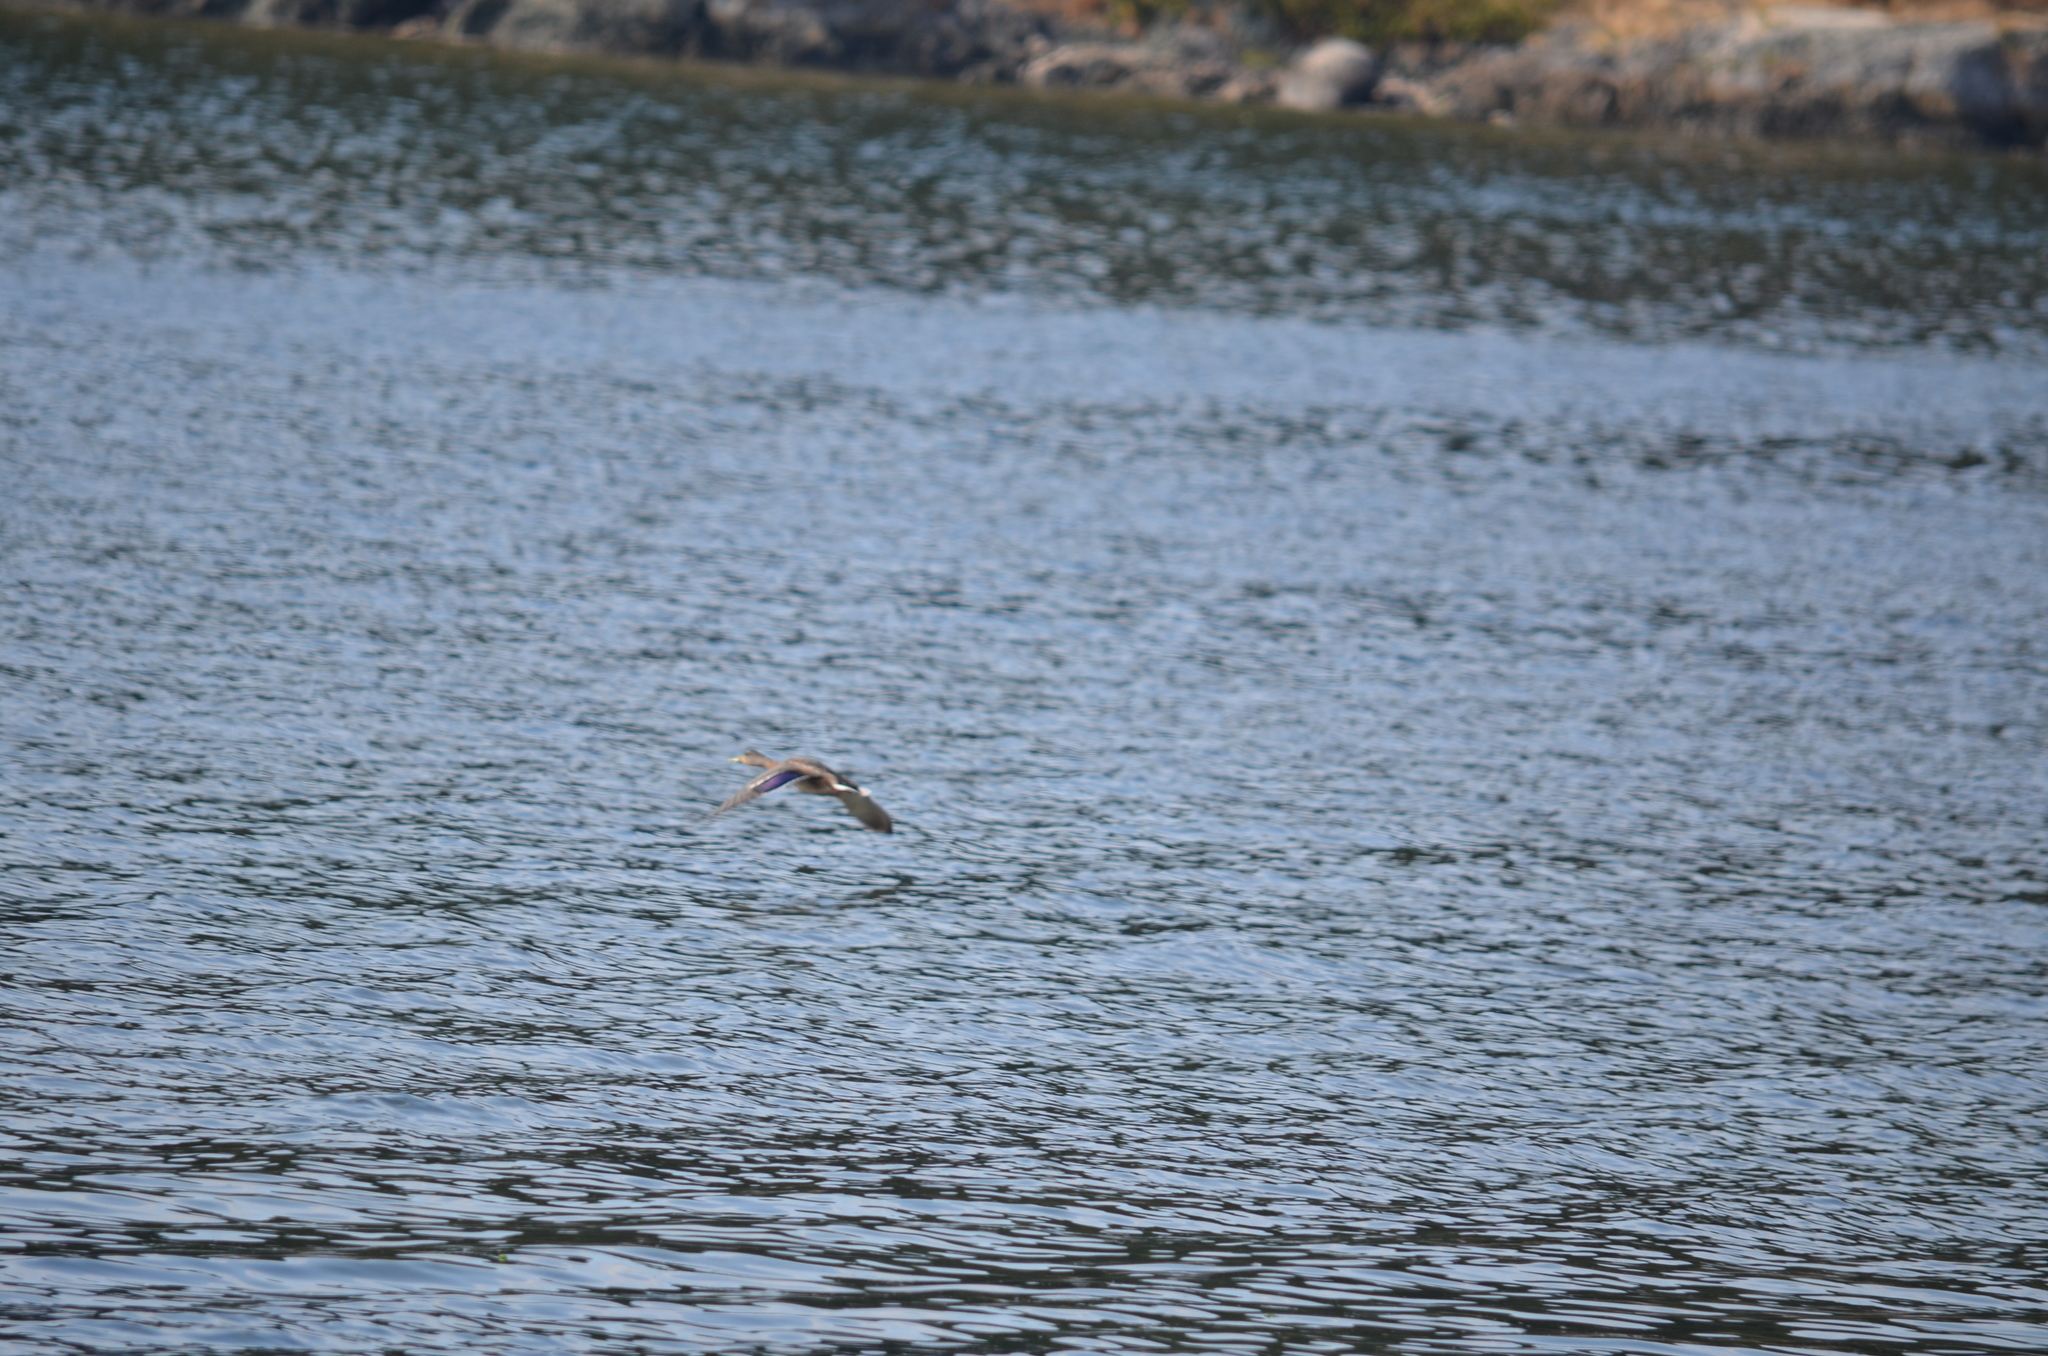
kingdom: Animalia
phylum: Chordata
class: Aves
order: Anseriformes
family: Anatidae
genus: Anas
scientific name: Anas platyrhynchos
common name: Mallard
